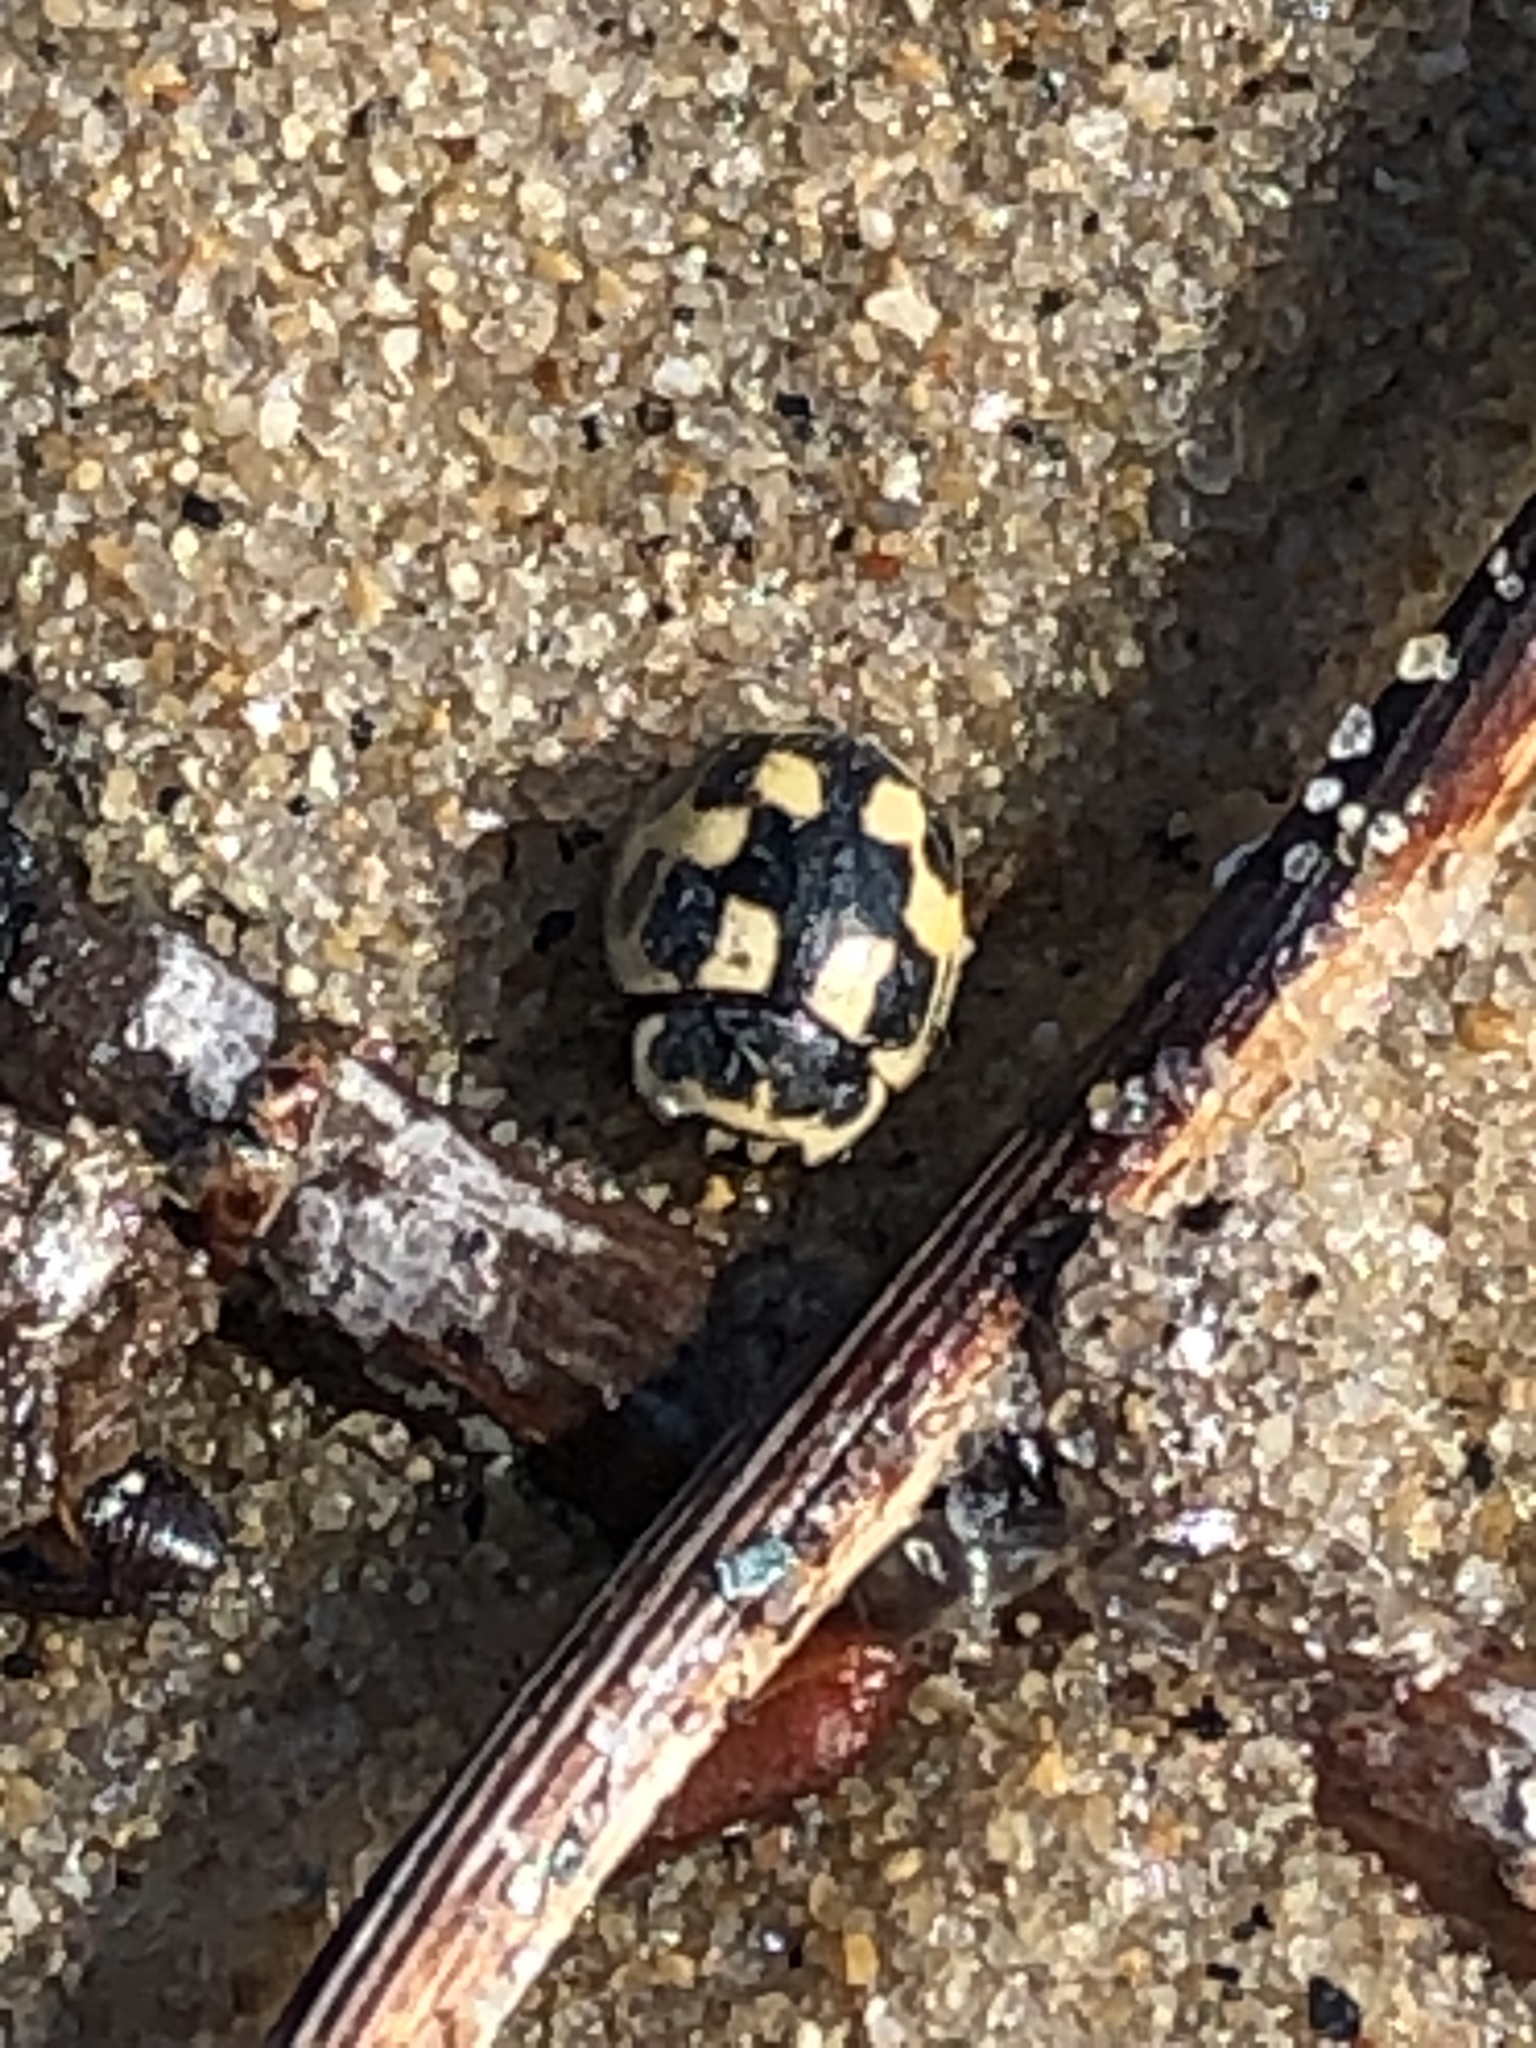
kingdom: Animalia
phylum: Arthropoda
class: Insecta
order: Coleoptera
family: Coccinellidae
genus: Propylaea
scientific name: Propylaea quatuordecimpunctata
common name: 14-spotted ladybird beetle
